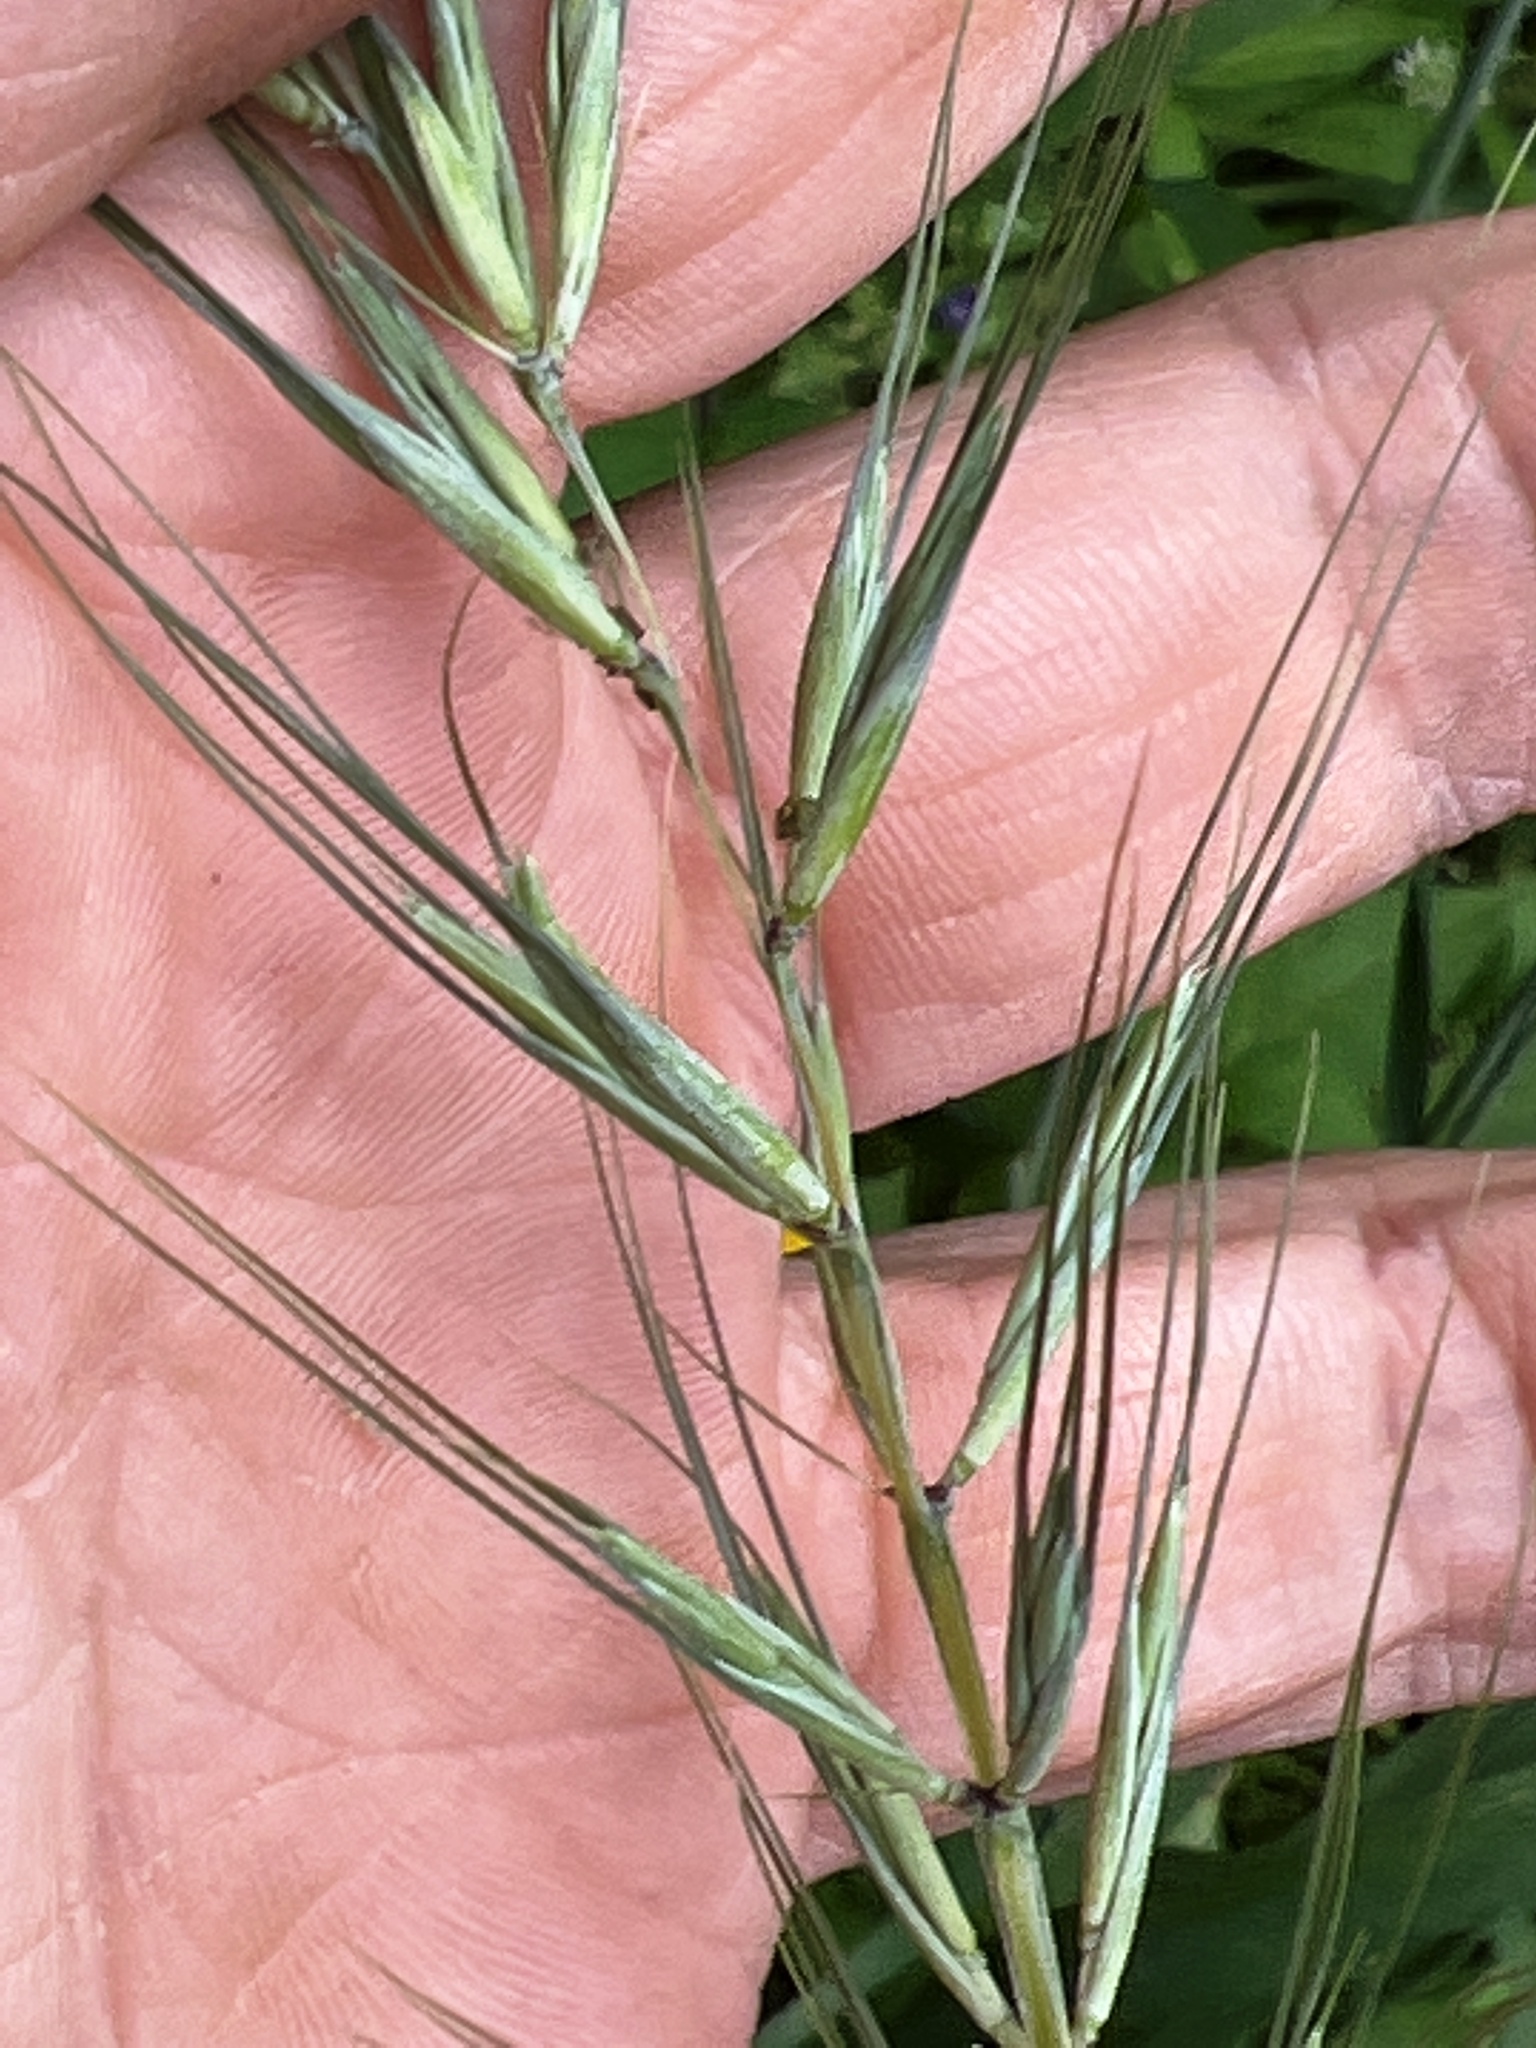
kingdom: Plantae
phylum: Tracheophyta
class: Liliopsida
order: Poales
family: Poaceae
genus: Elymus
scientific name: Elymus hystrix
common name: Bottlebrush grass
